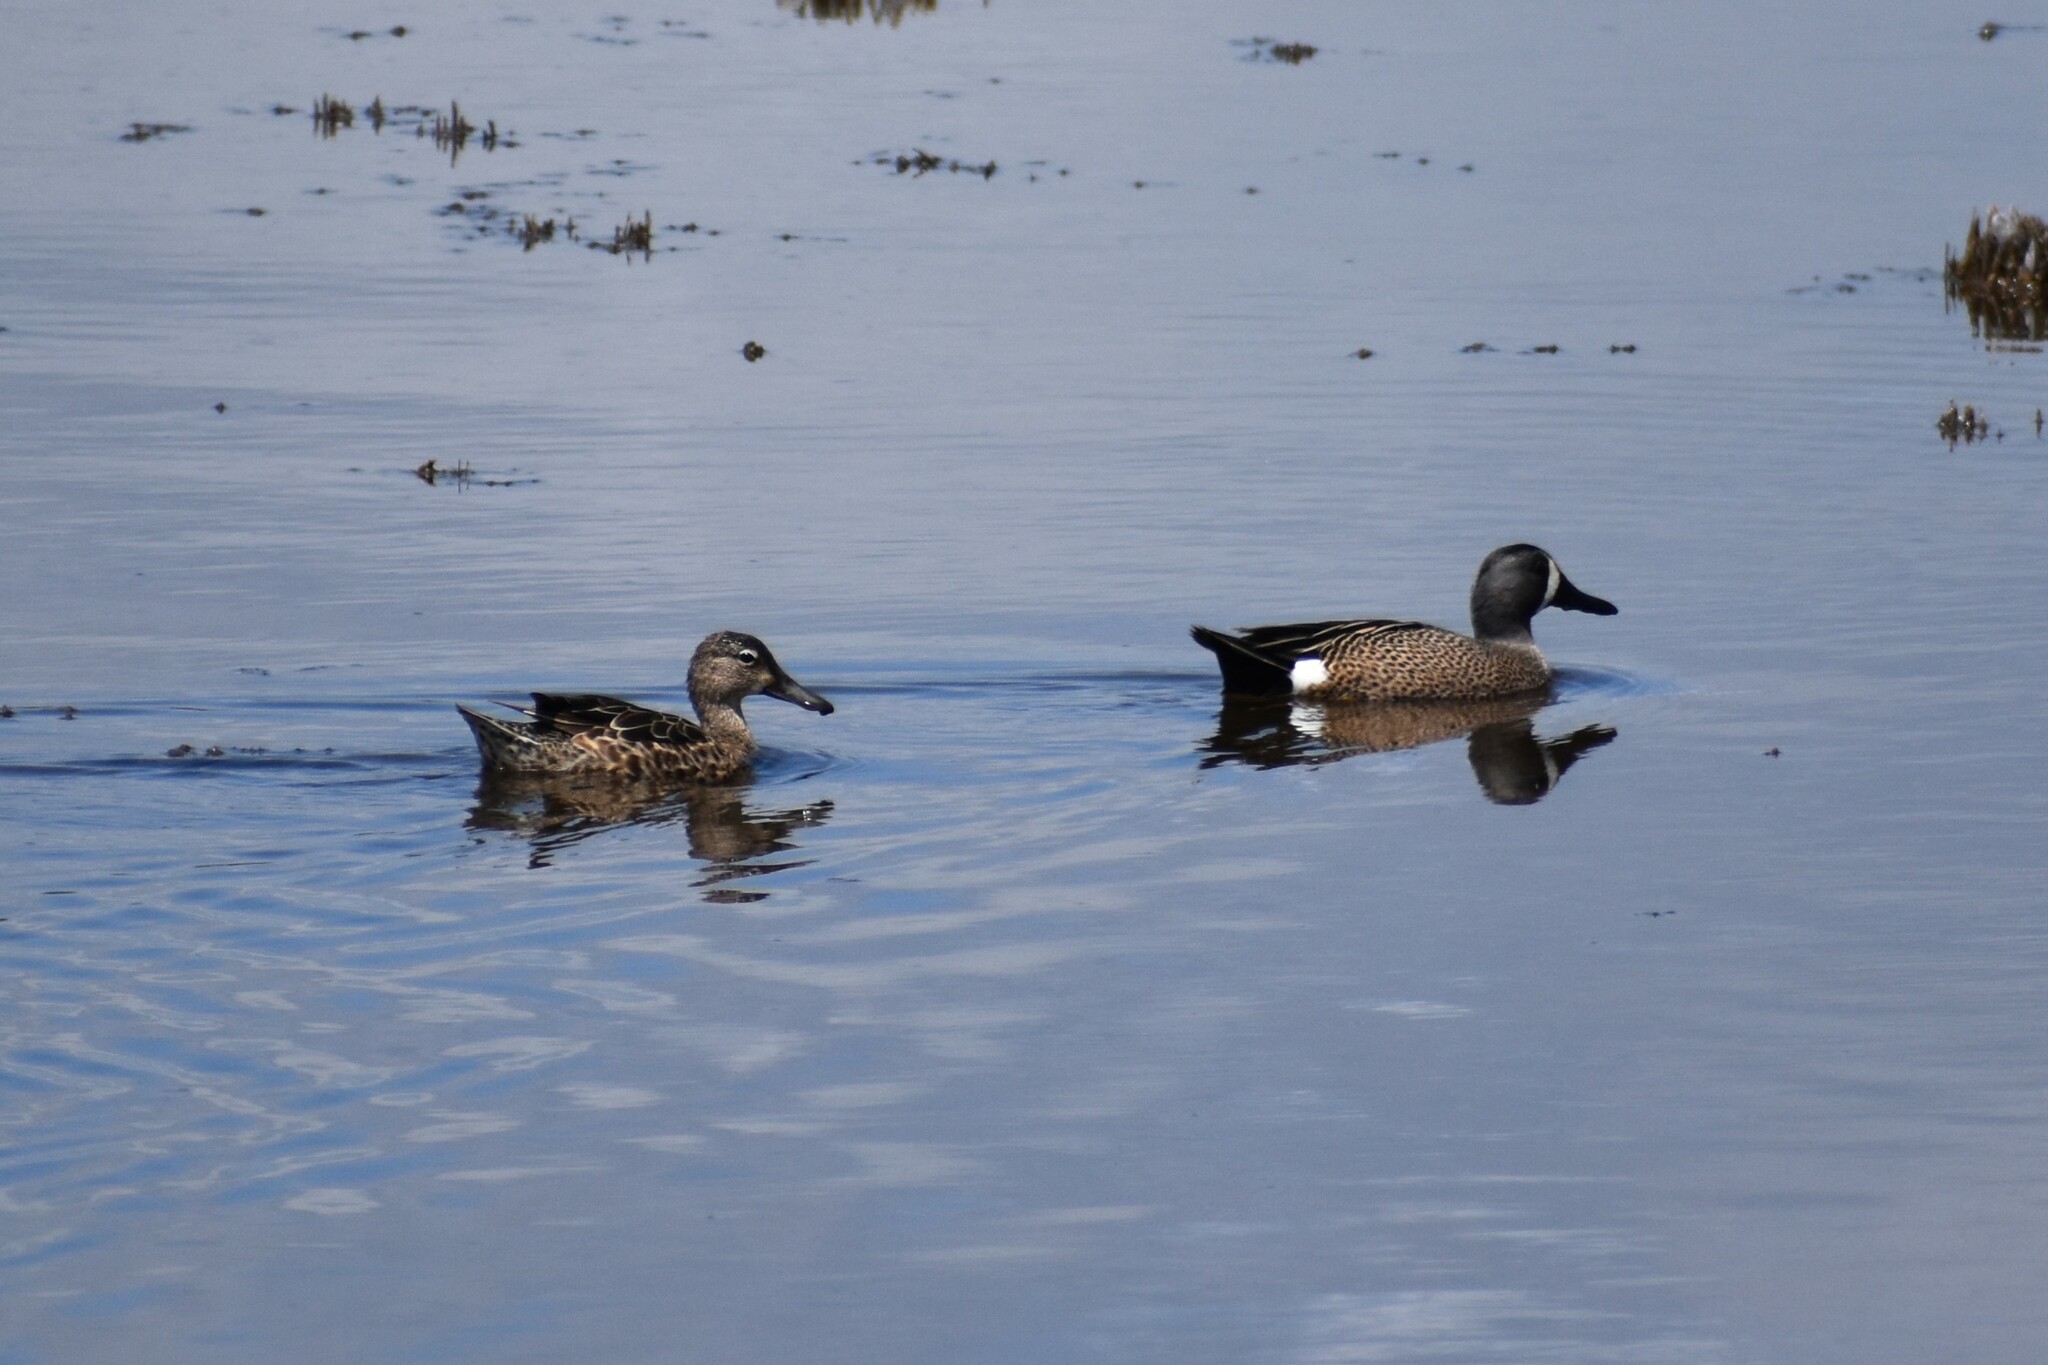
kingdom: Animalia
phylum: Chordata
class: Aves
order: Anseriformes
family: Anatidae
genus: Spatula
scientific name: Spatula discors
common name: Blue-winged teal
